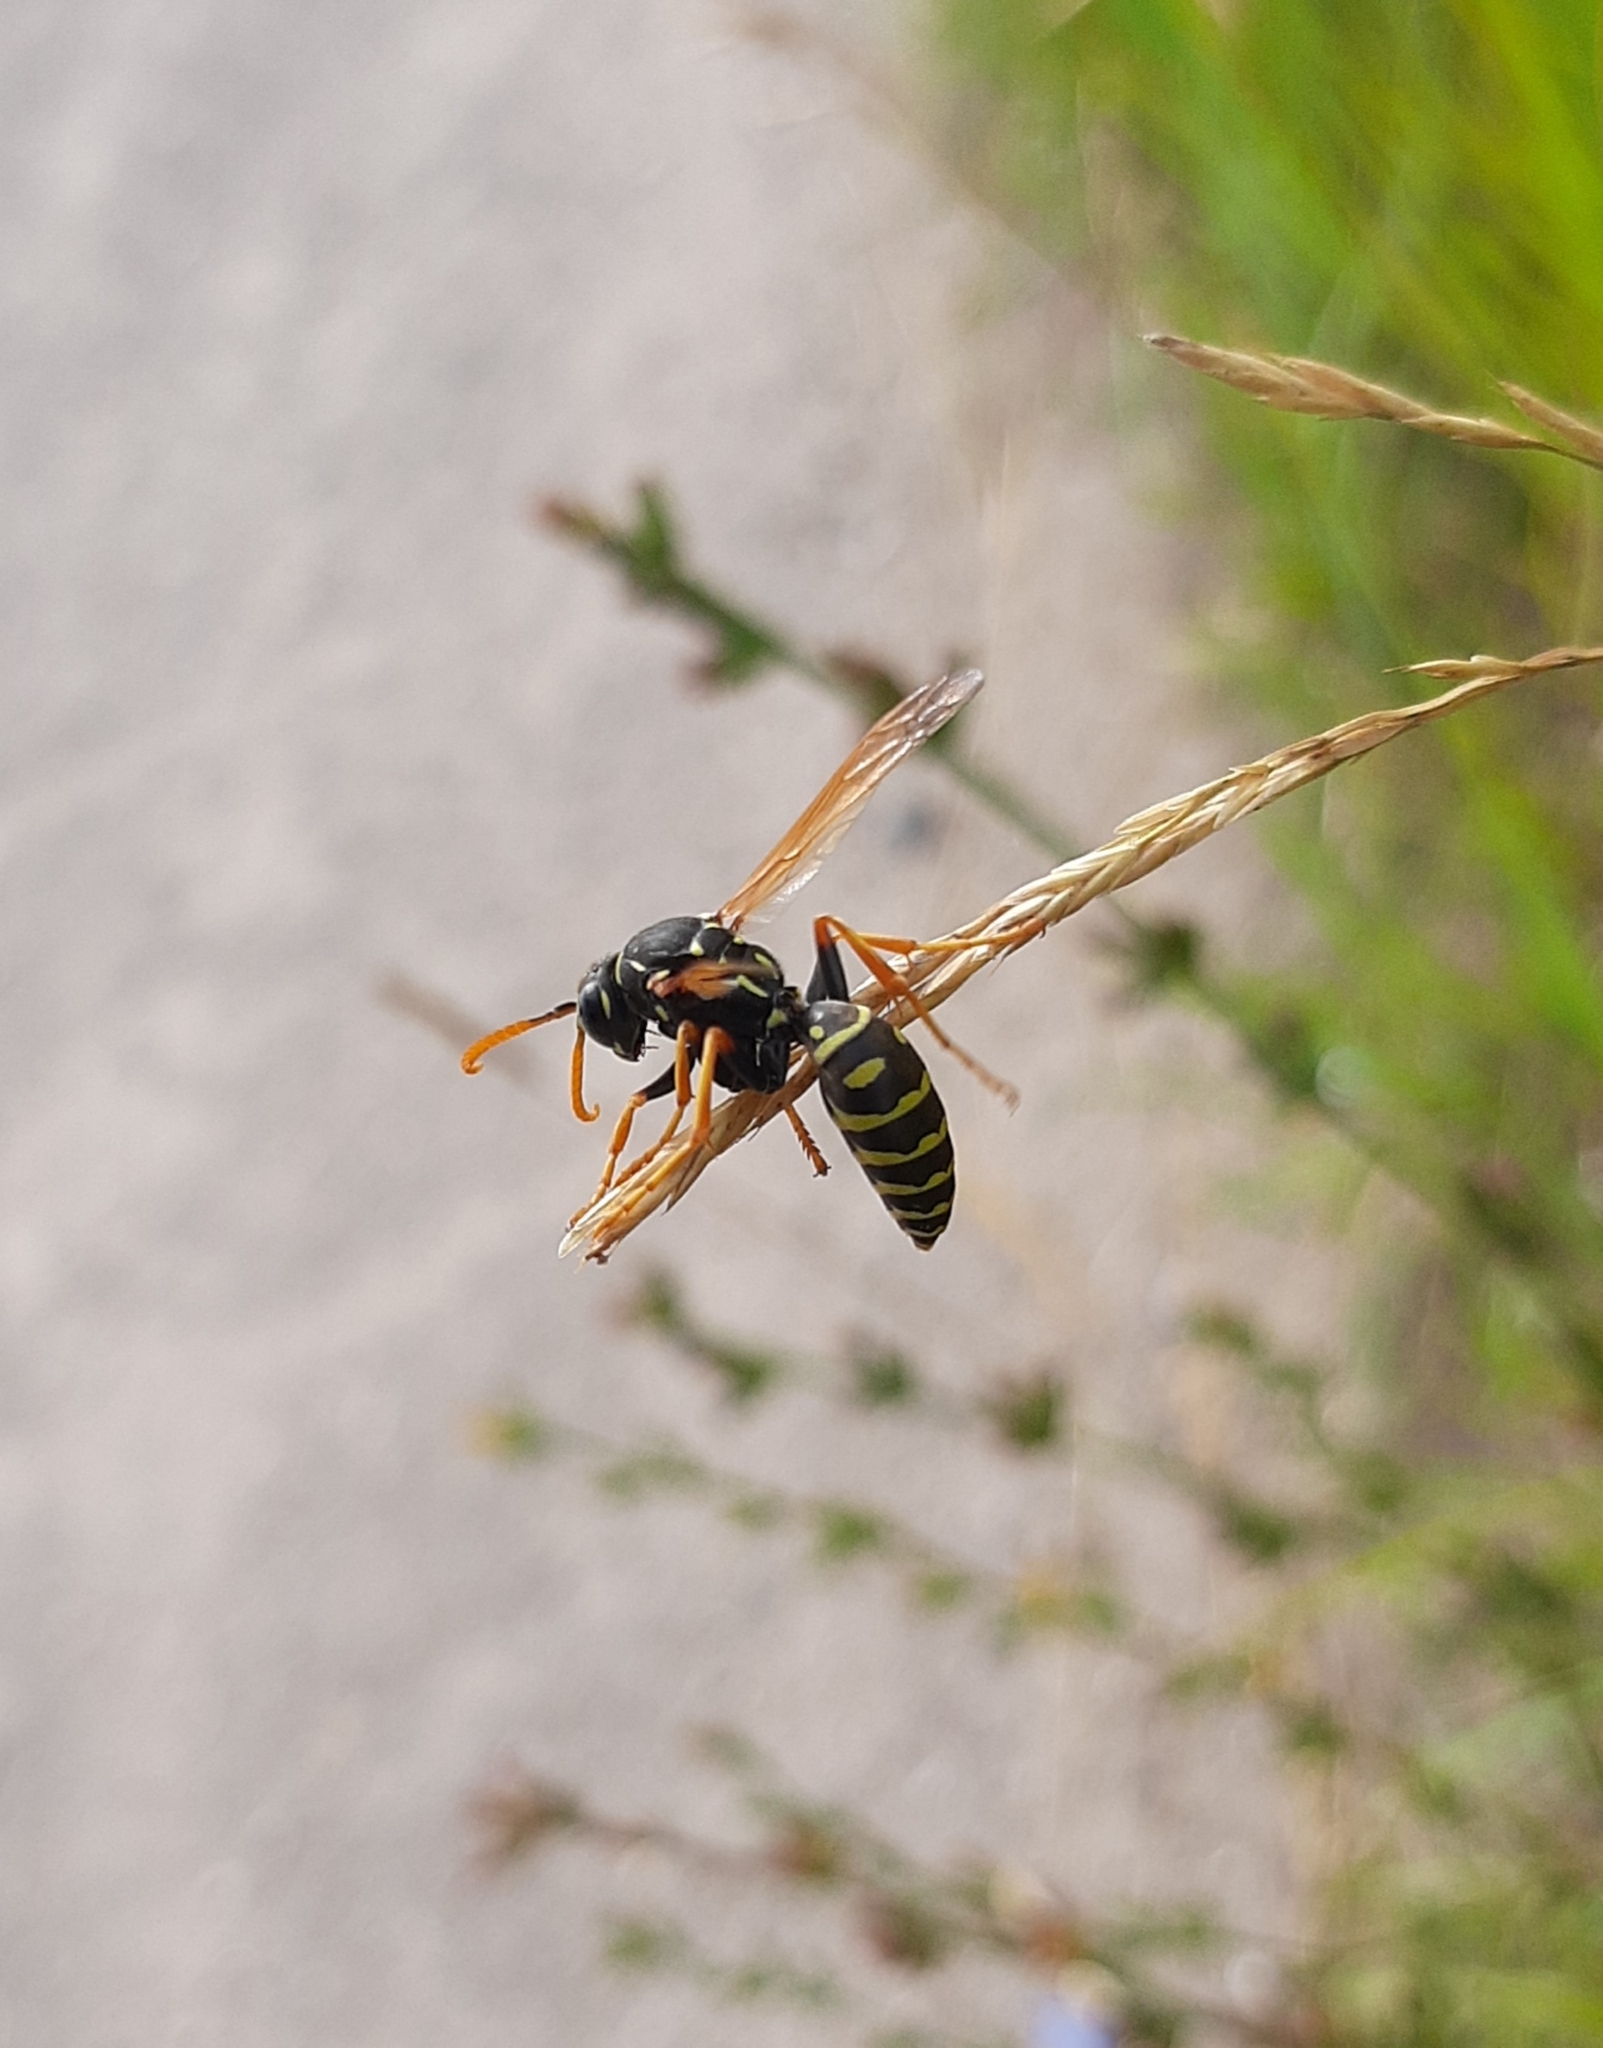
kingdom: Animalia
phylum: Arthropoda
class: Insecta
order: Hymenoptera
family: Eumenidae
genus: Polistes
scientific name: Polistes dominula
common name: Paper wasp
